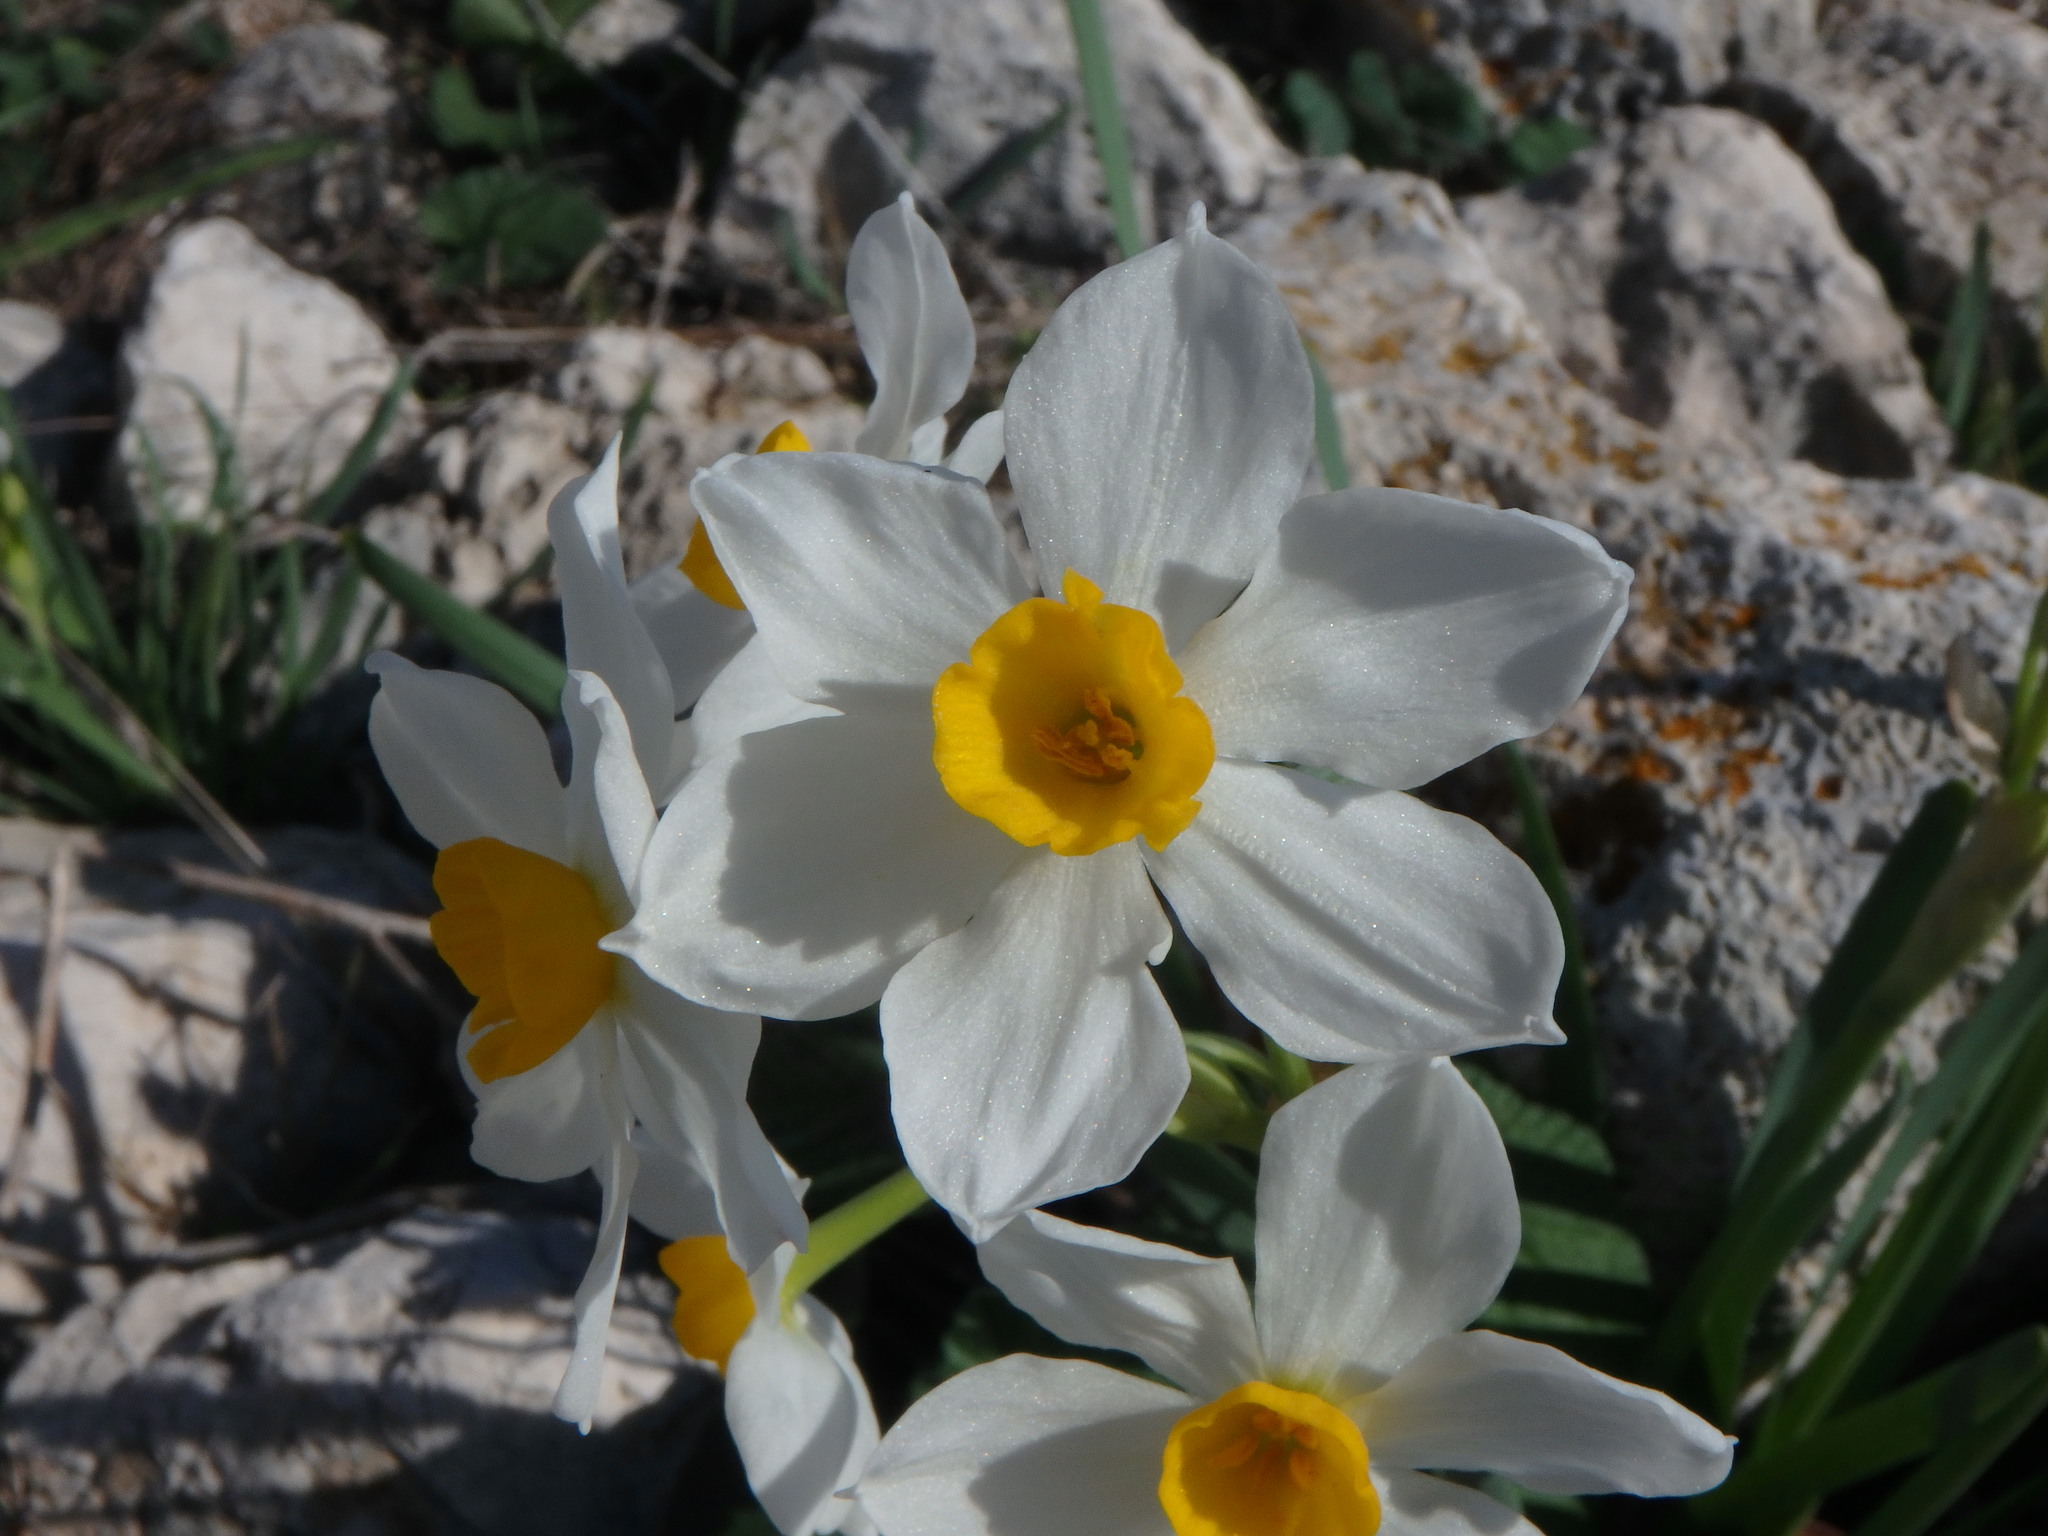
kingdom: Plantae
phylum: Tracheophyta
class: Liliopsida
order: Asparagales
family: Amaryllidaceae
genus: Narcissus
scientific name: Narcissus tazetta
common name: Bunch-flowered daffodil
